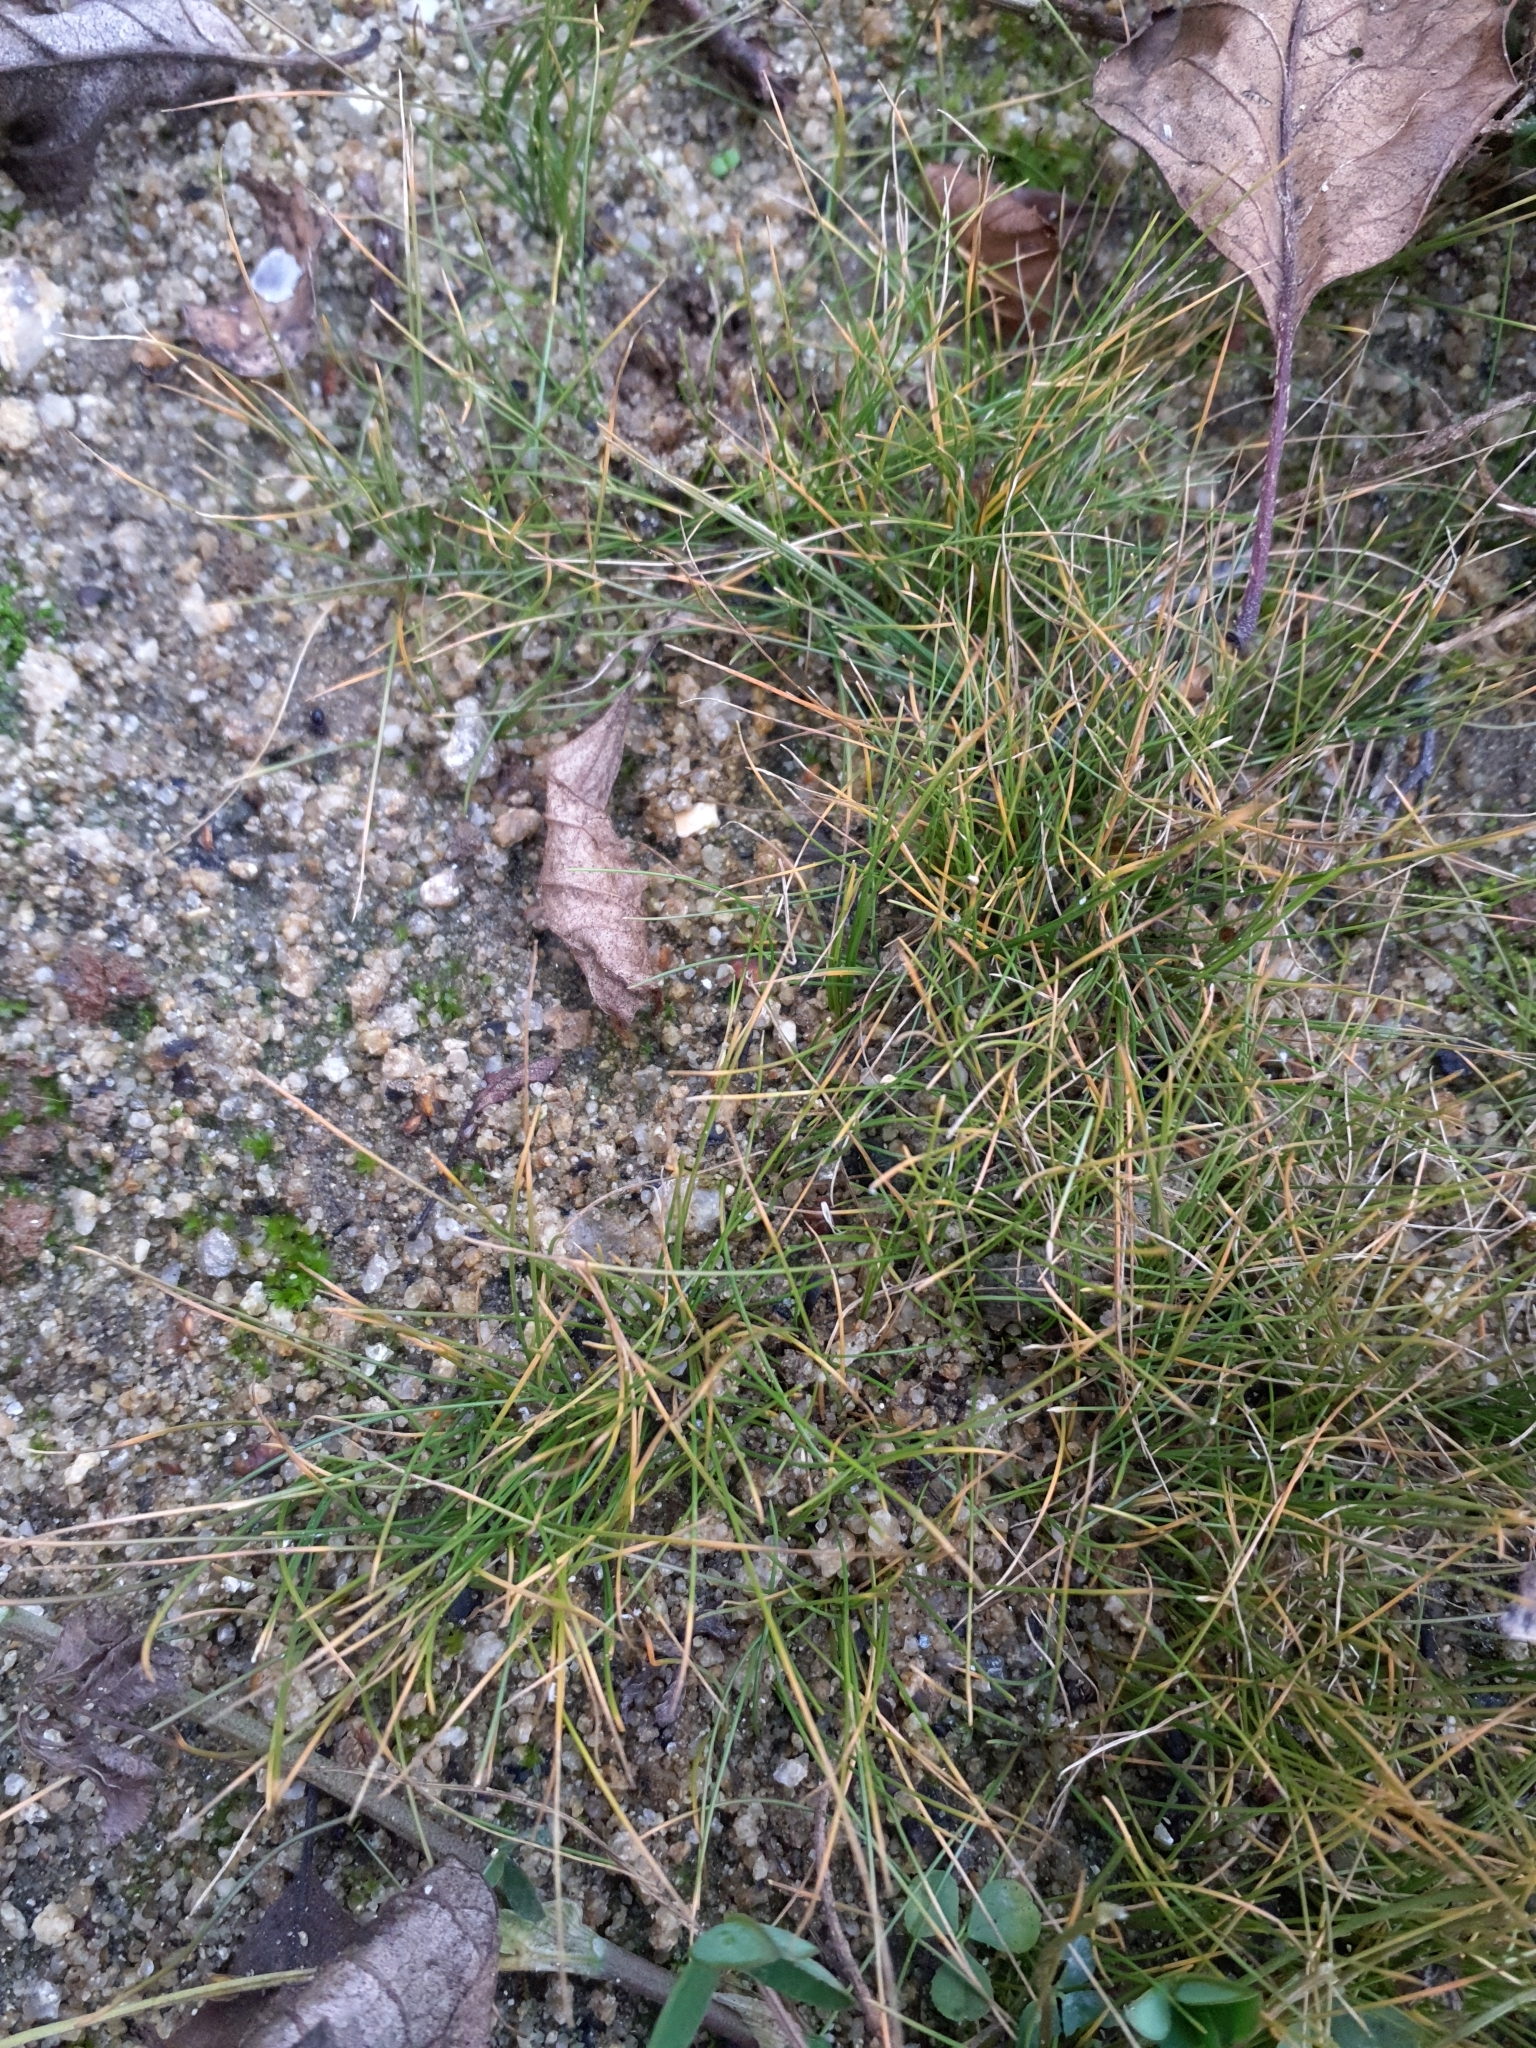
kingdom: Plantae
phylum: Tracheophyta
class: Liliopsida
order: Poales
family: Cyperaceae
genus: Eleocharis
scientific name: Eleocharis acicularis
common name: Needle spike-rush
